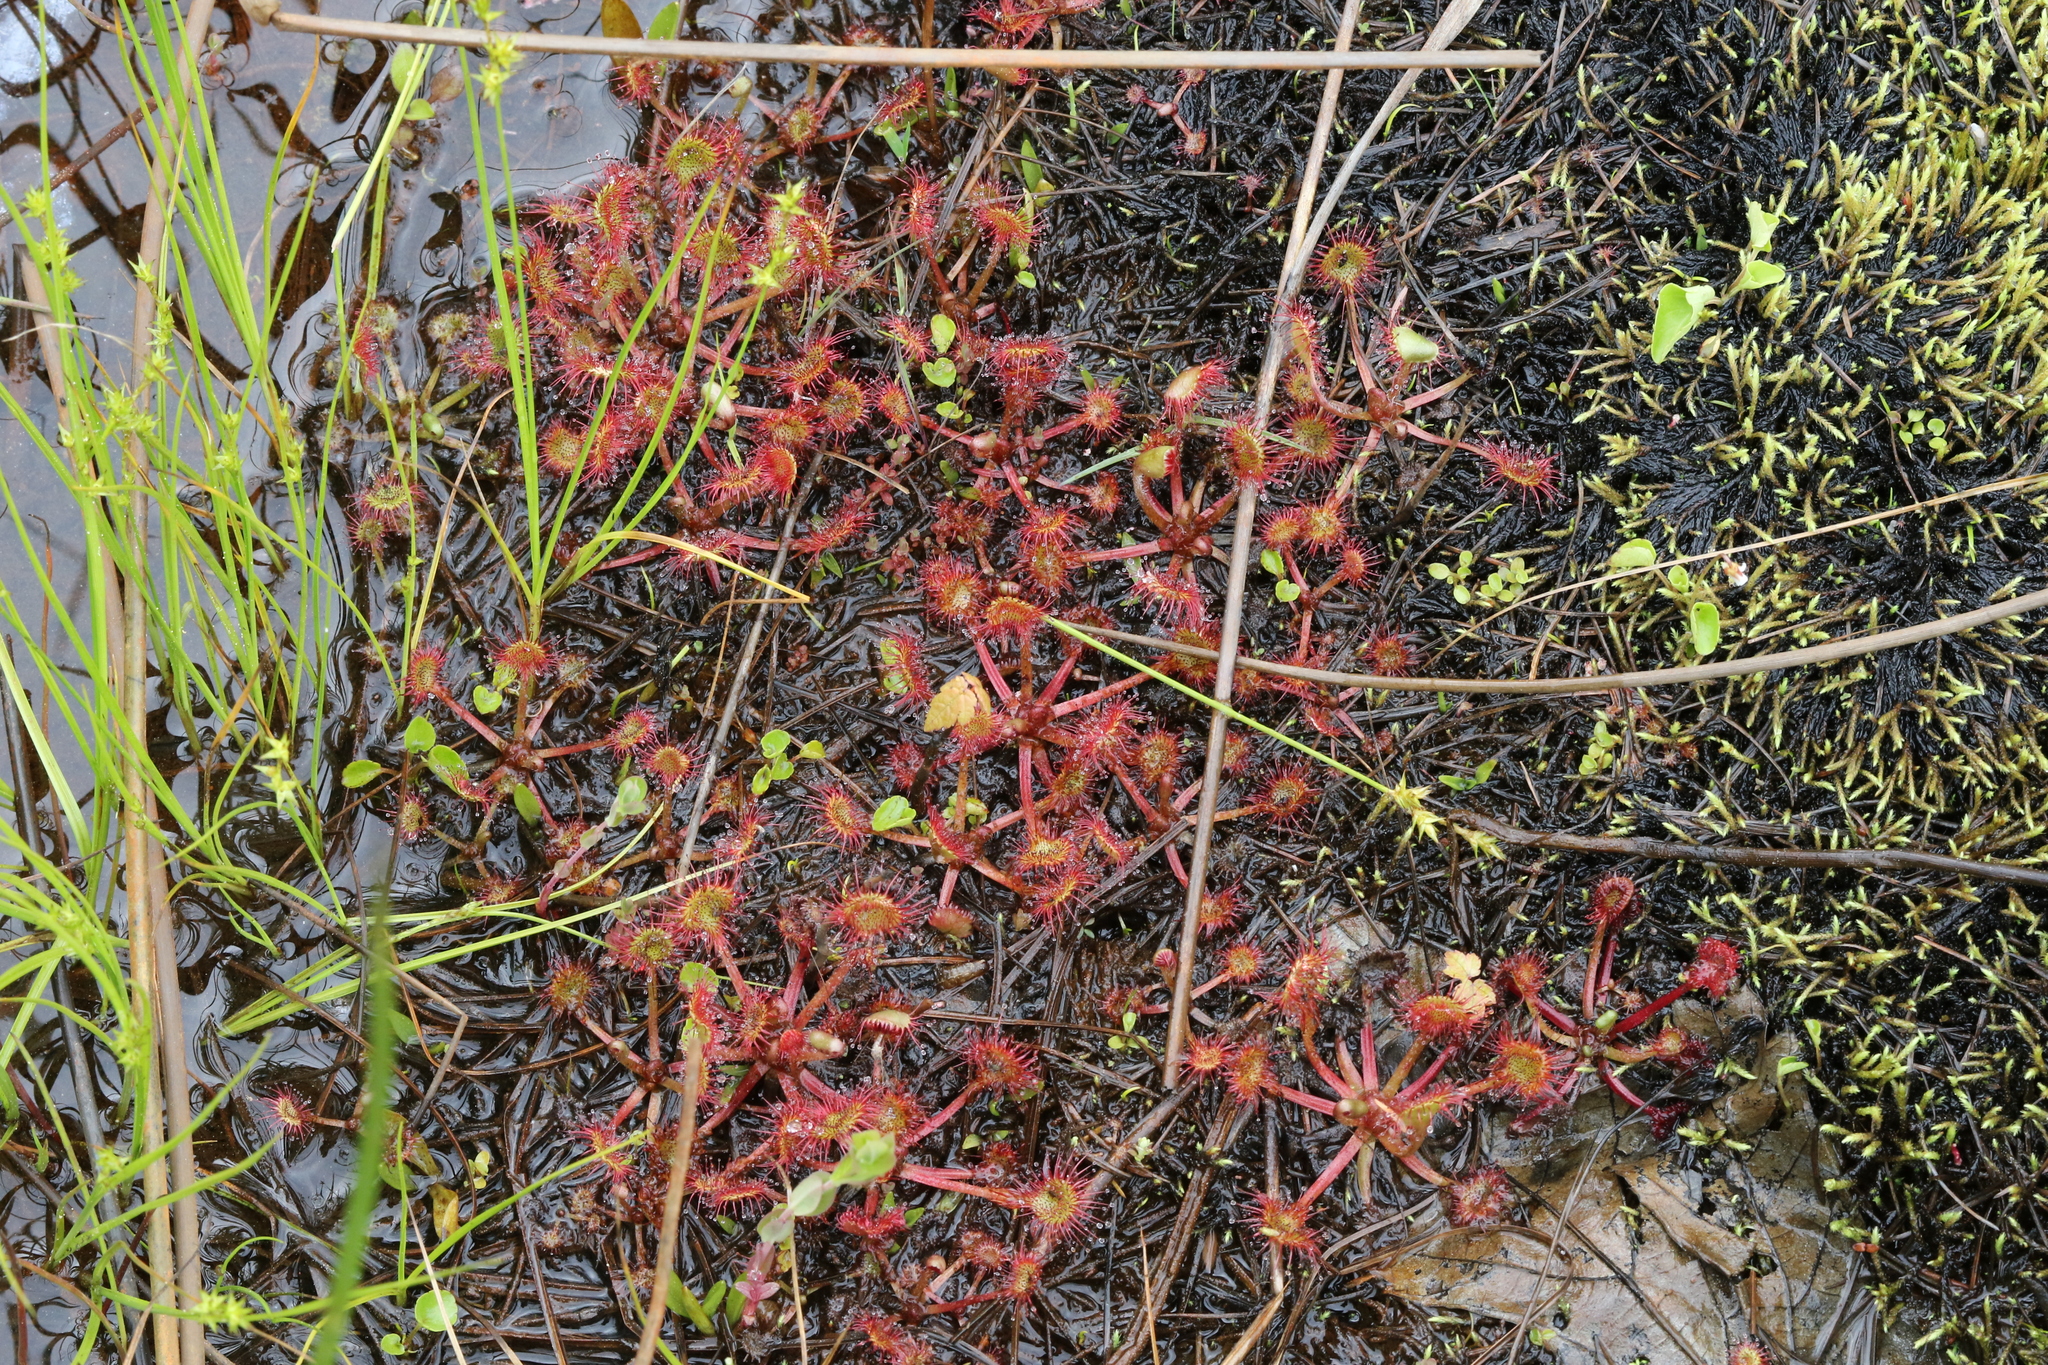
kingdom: Plantae
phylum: Tracheophyta
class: Magnoliopsida
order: Caryophyllales
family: Droseraceae
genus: Drosera
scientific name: Drosera rotundifolia
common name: Round-leaved sundew
